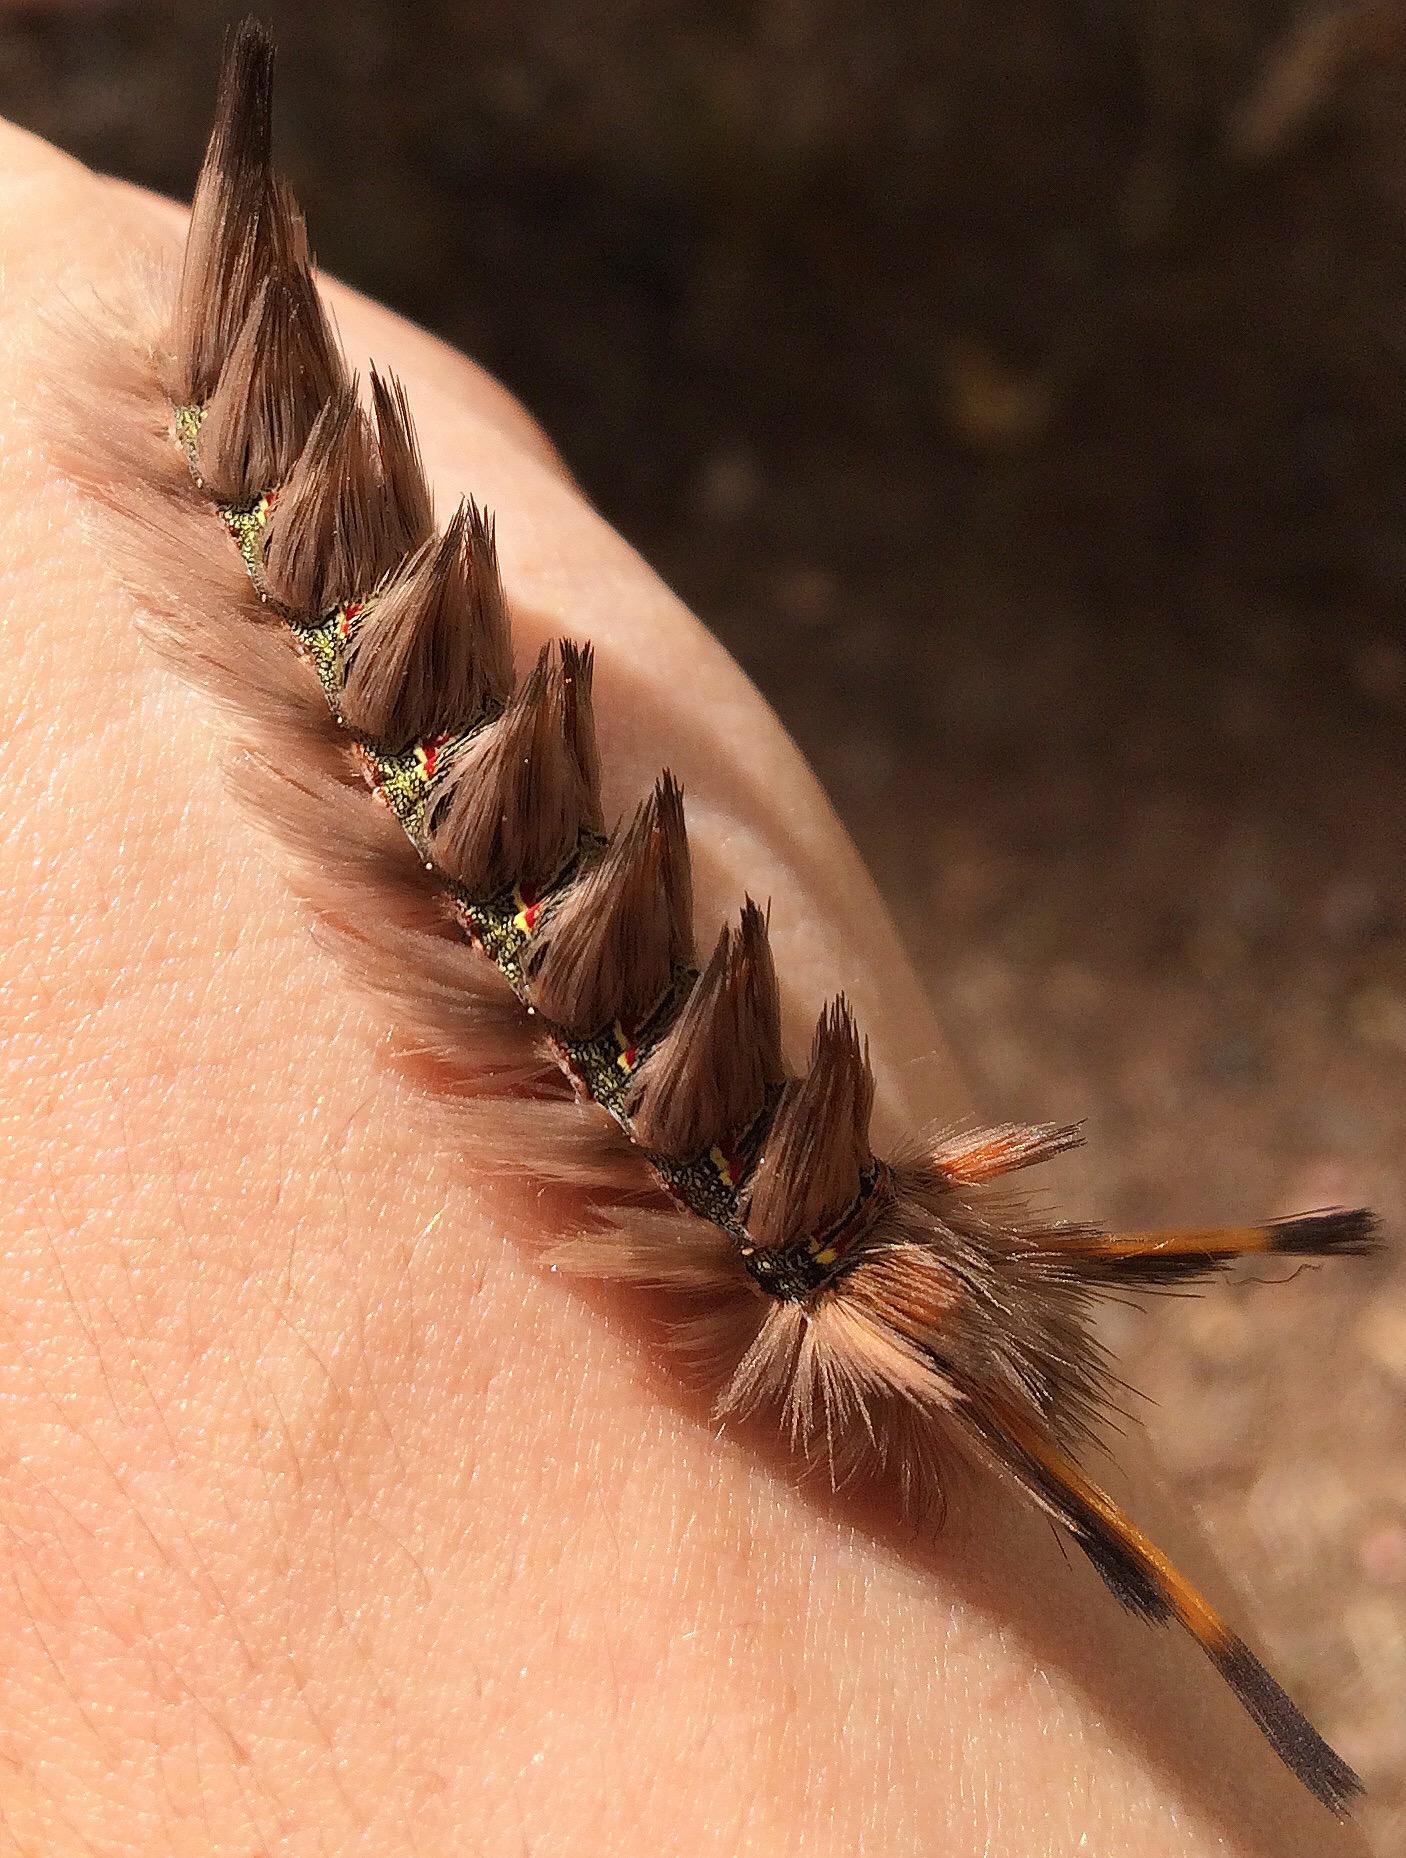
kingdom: Animalia
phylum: Arthropoda
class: Insecta
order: Lepidoptera
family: Eupterotidae
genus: Lichenopteryx
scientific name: Lichenopteryx despecta
